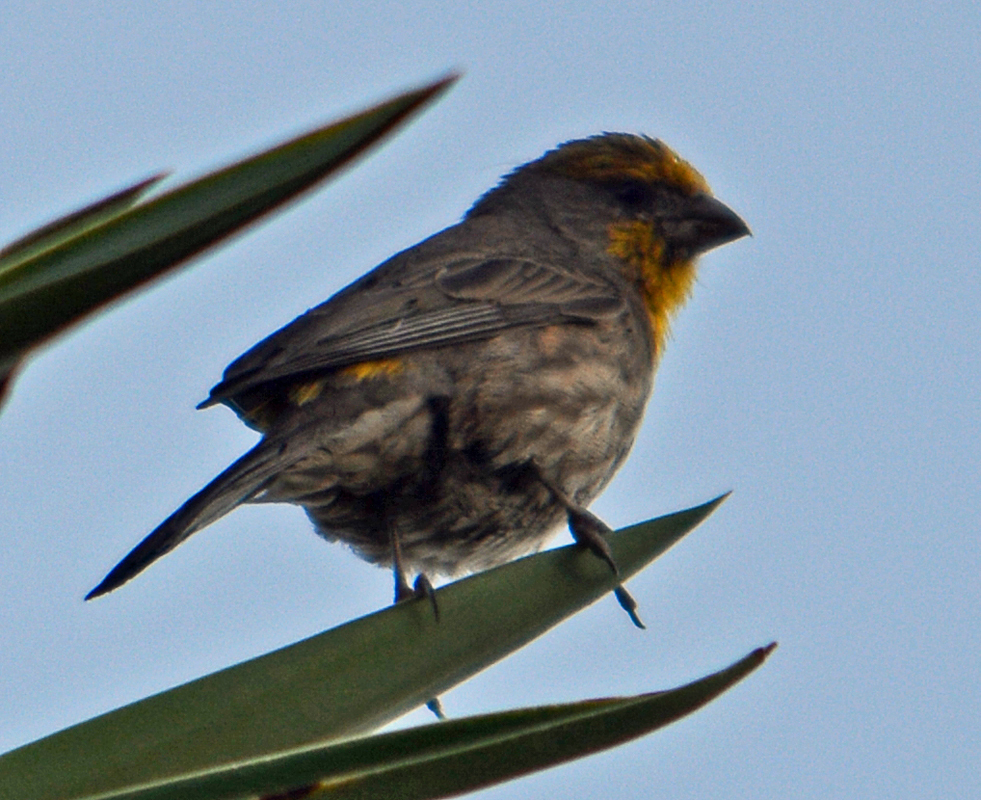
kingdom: Animalia
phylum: Chordata
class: Aves
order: Passeriformes
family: Fringillidae
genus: Haemorhous
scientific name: Haemorhous mexicanus
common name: House finch
